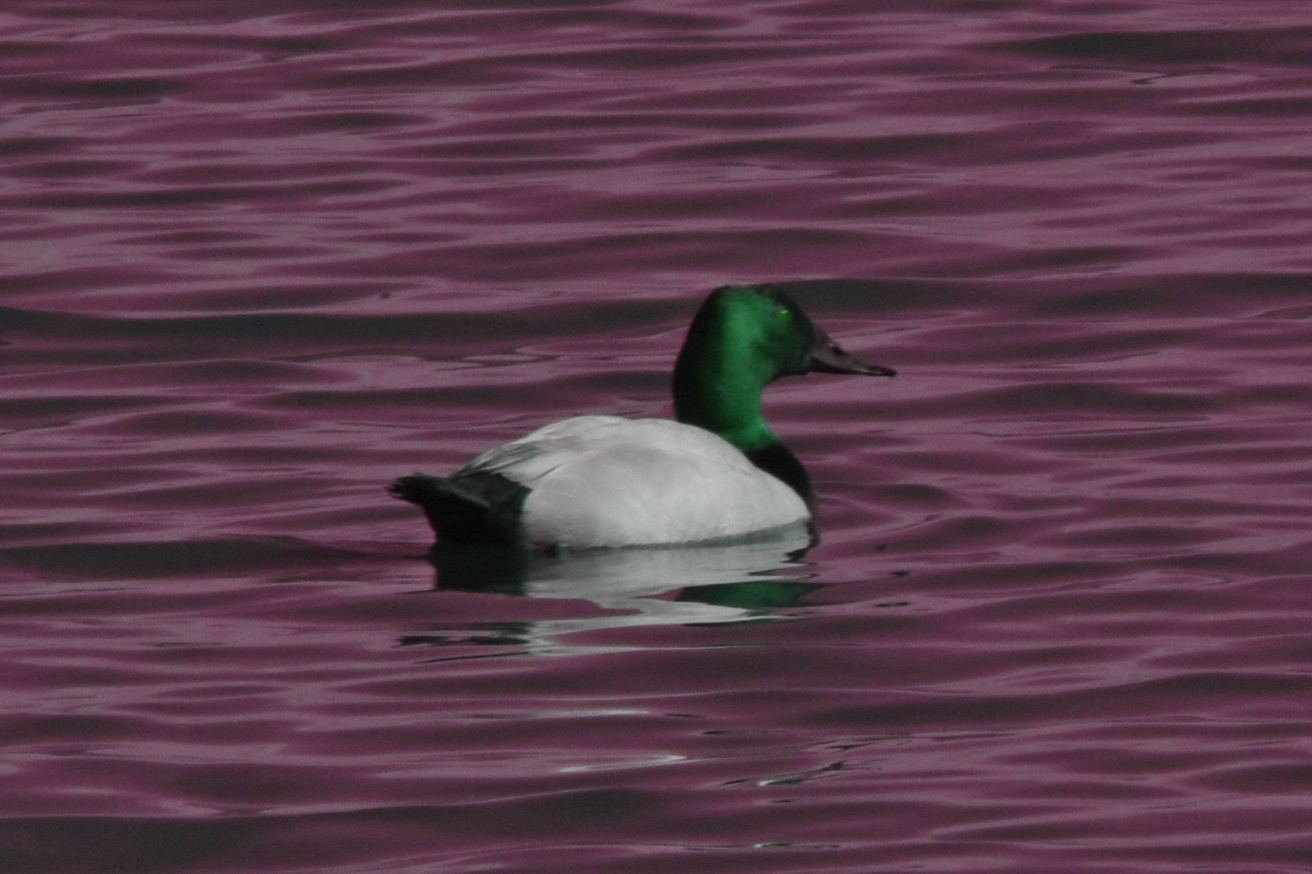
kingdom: Animalia
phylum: Chordata
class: Aves
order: Anseriformes
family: Anatidae
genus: Aythya
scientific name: Aythya valisineria
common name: Canvasback
